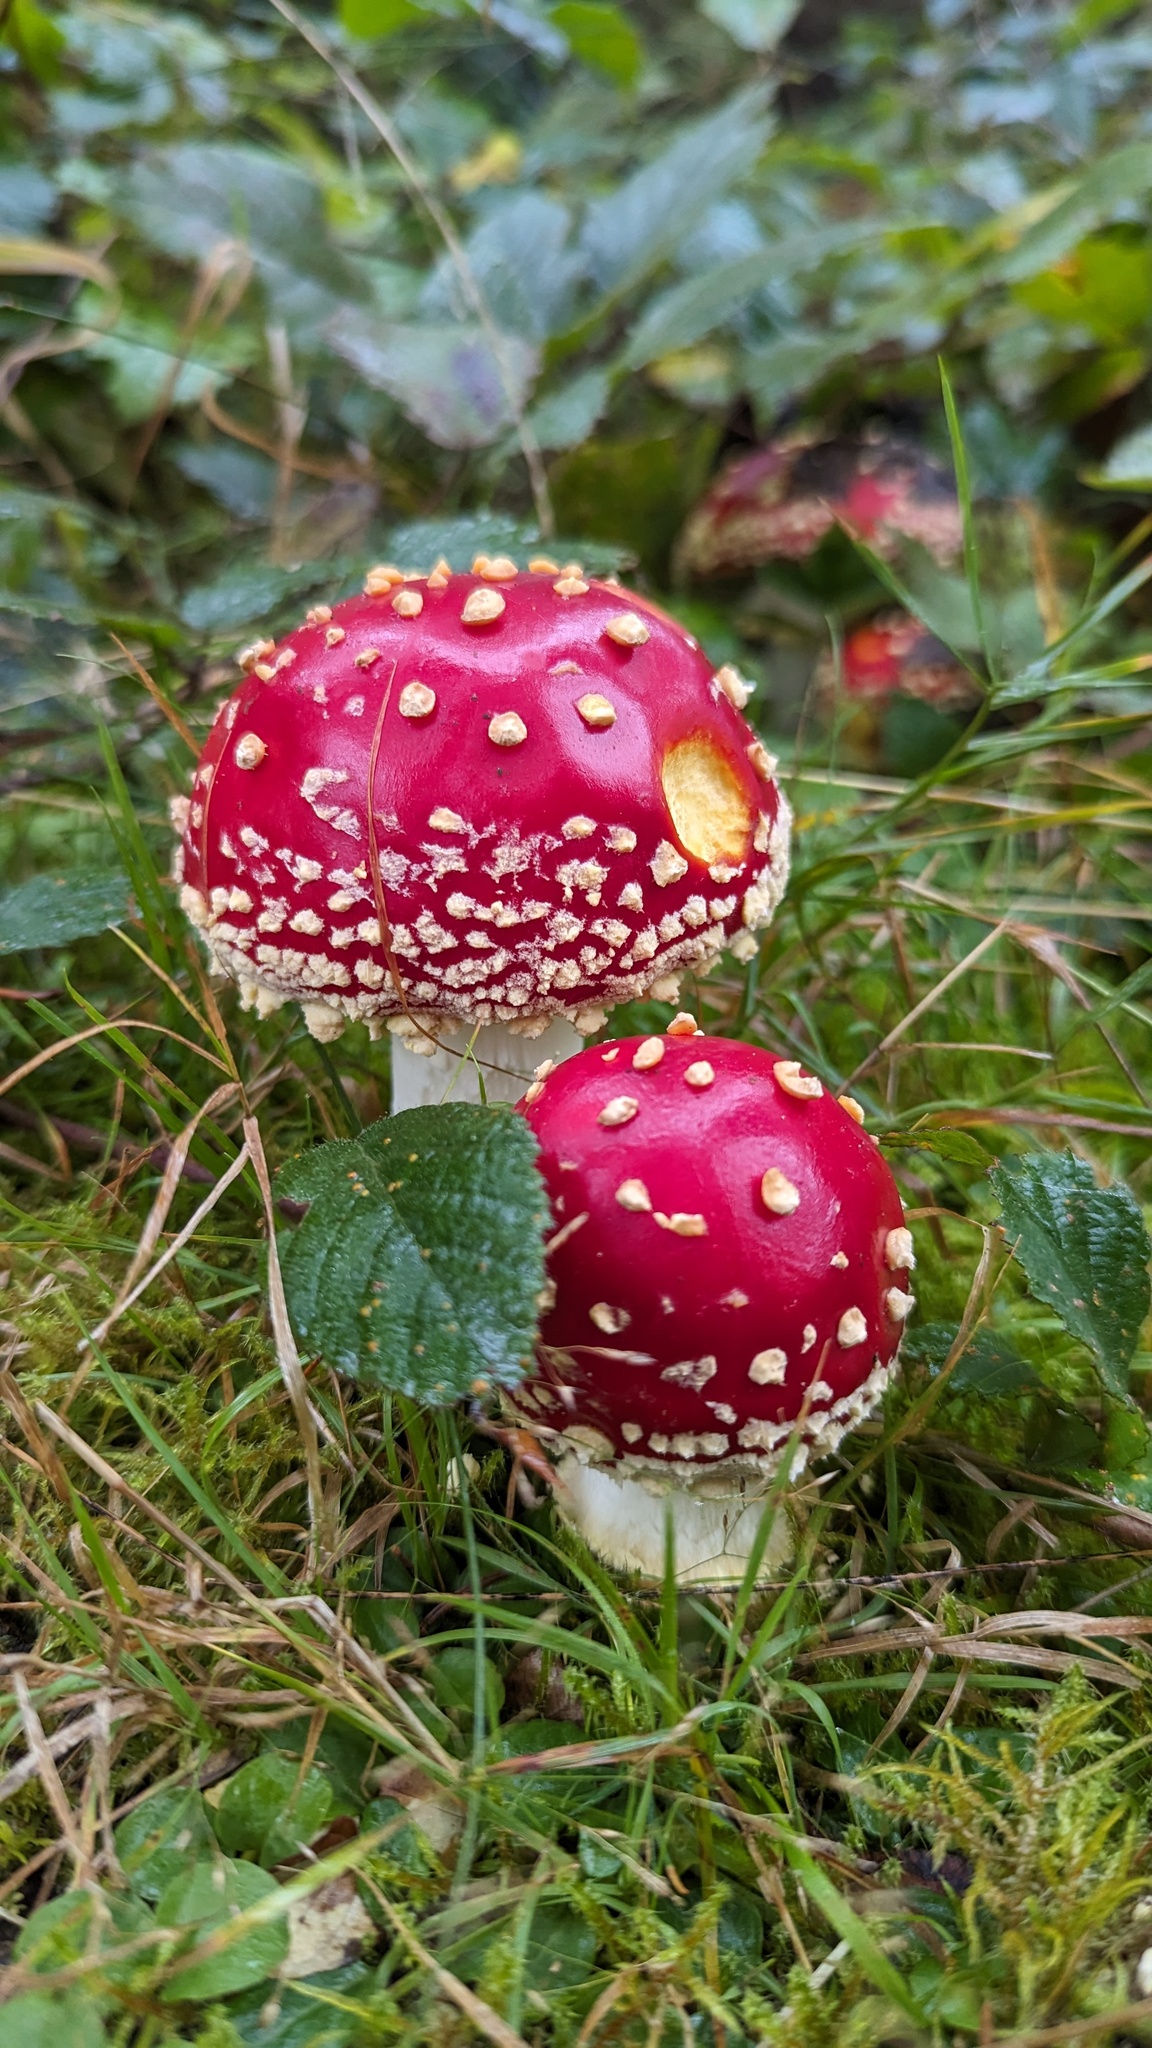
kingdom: Fungi
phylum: Basidiomycota
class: Agaricomycetes
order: Agaricales
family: Amanitaceae
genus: Amanita
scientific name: Amanita muscaria
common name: Fly agaric
